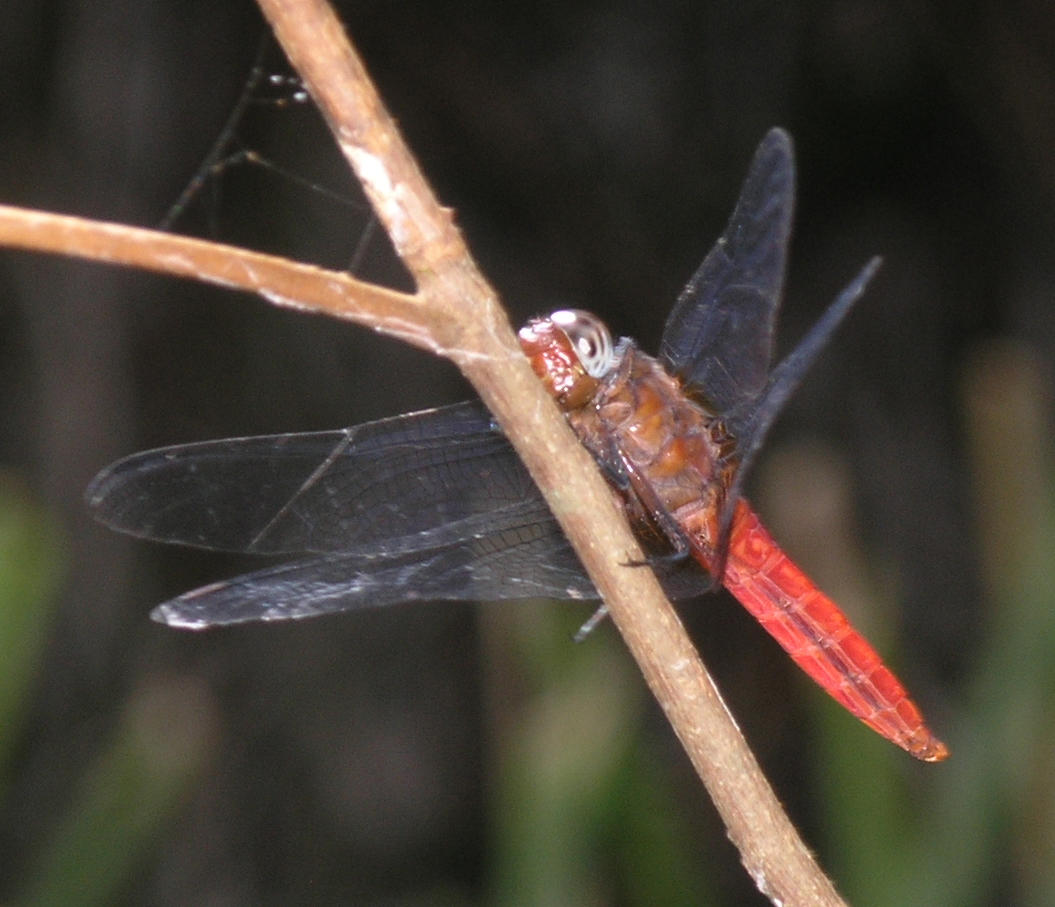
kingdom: Animalia
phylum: Arthropoda
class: Insecta
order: Odonata
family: Libellulidae
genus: Orthetrum
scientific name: Orthetrum testaceum
